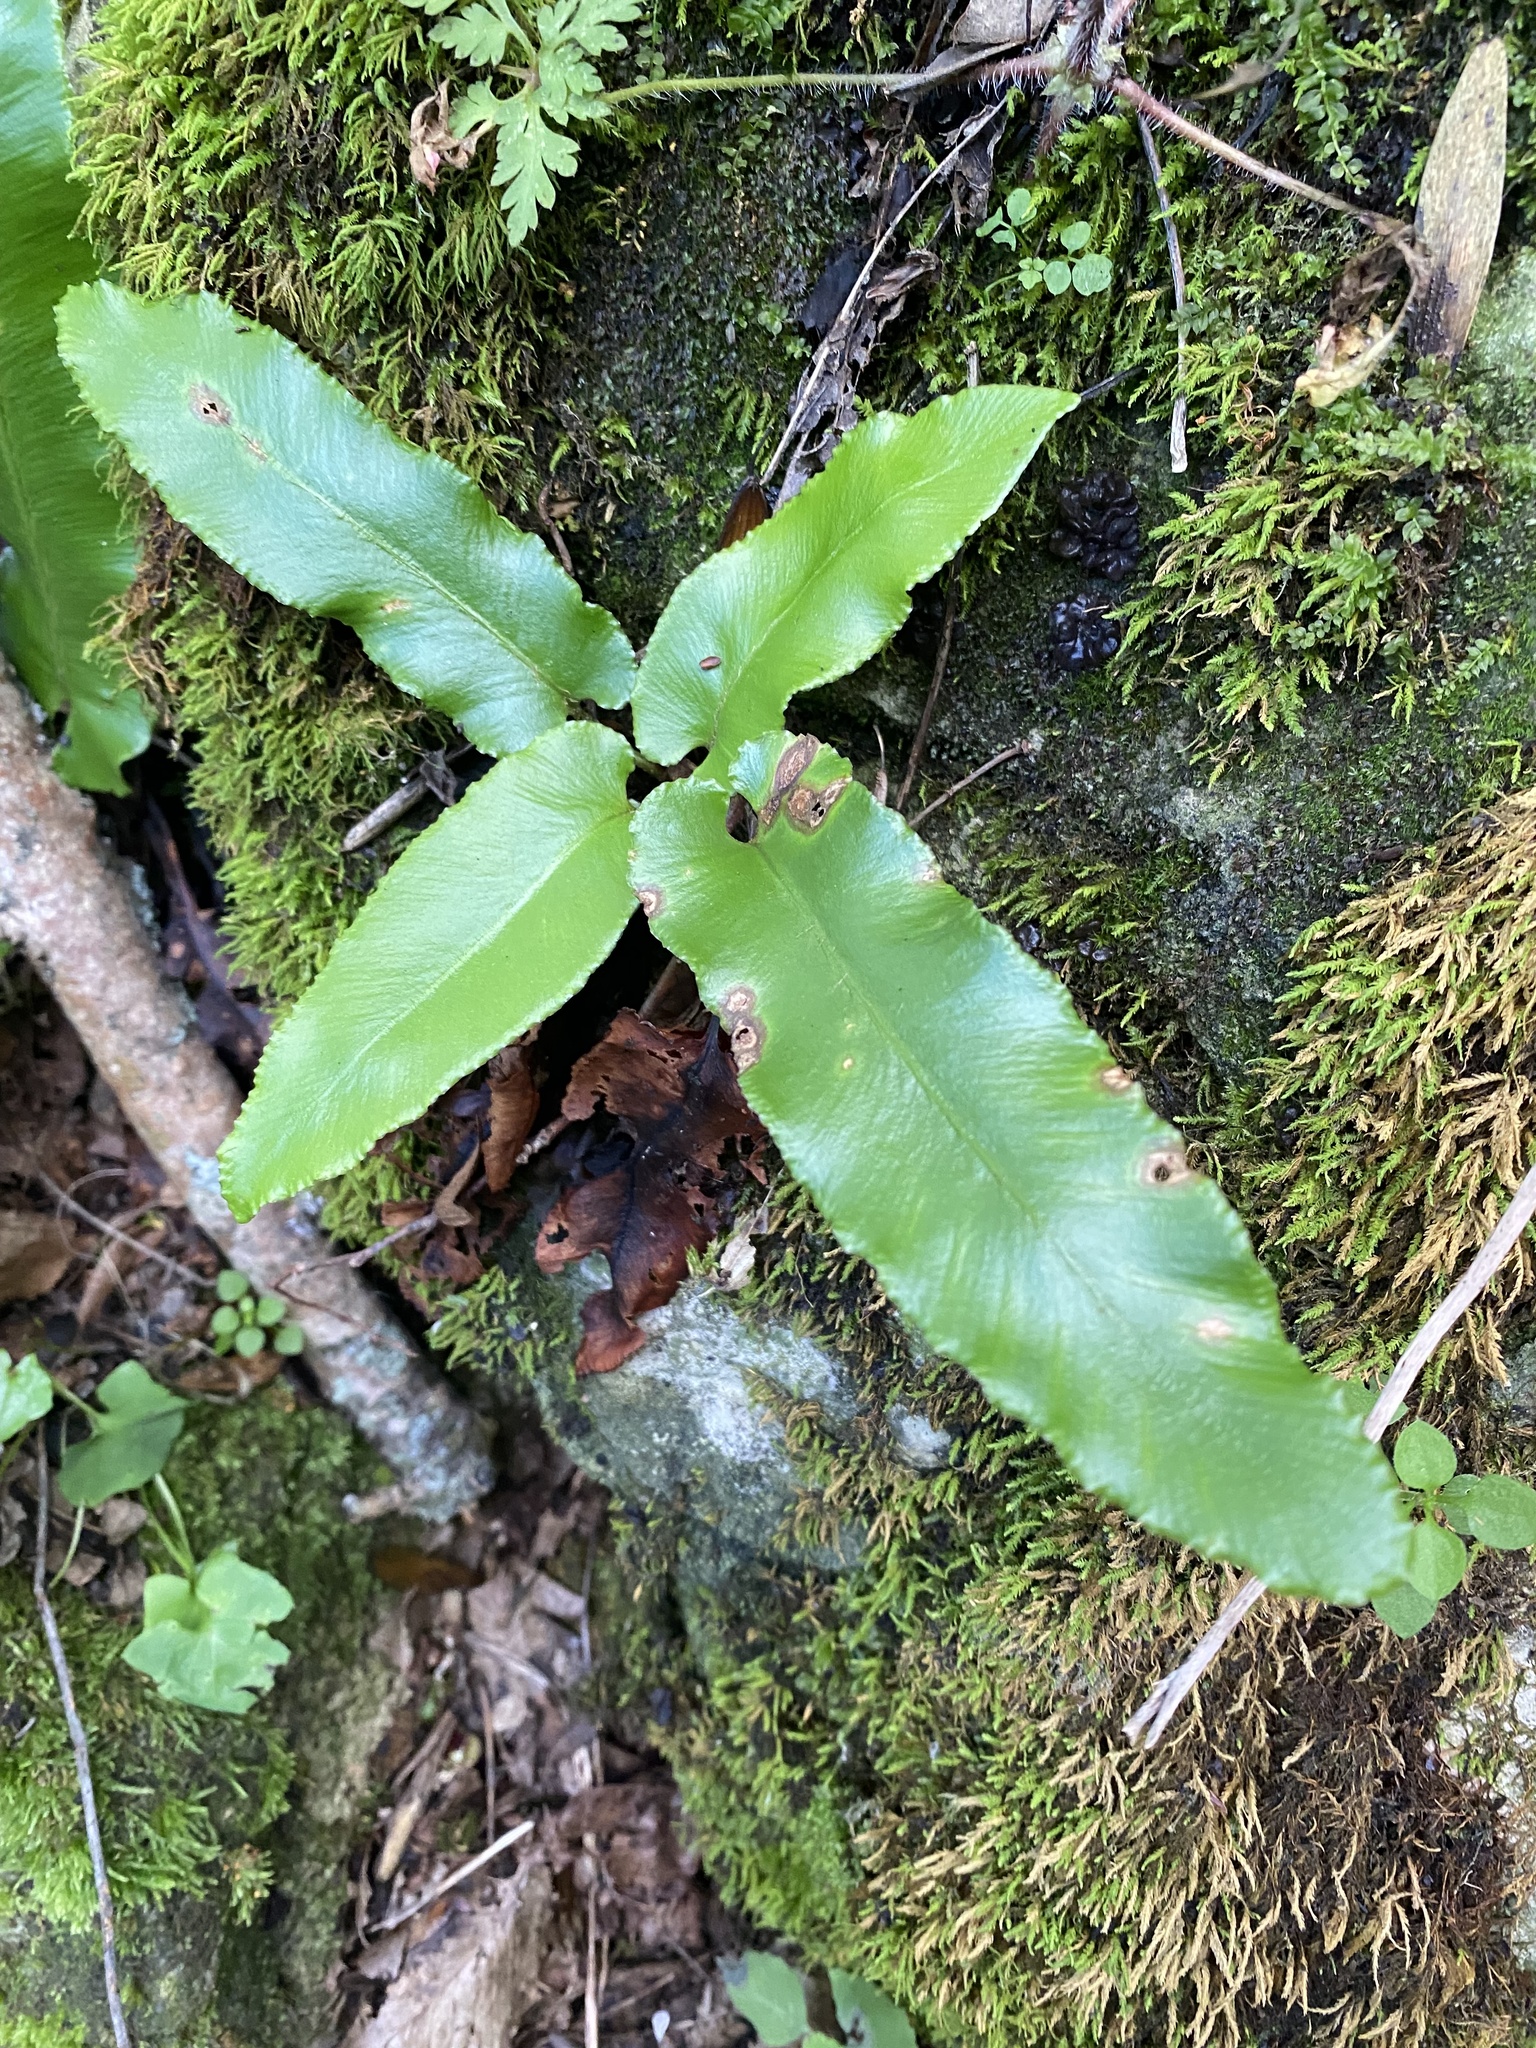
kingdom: Plantae
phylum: Tracheophyta
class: Polypodiopsida
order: Polypodiales
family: Aspleniaceae
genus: Asplenium
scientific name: Asplenium scolopendrium
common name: Hart's-tongue fern
